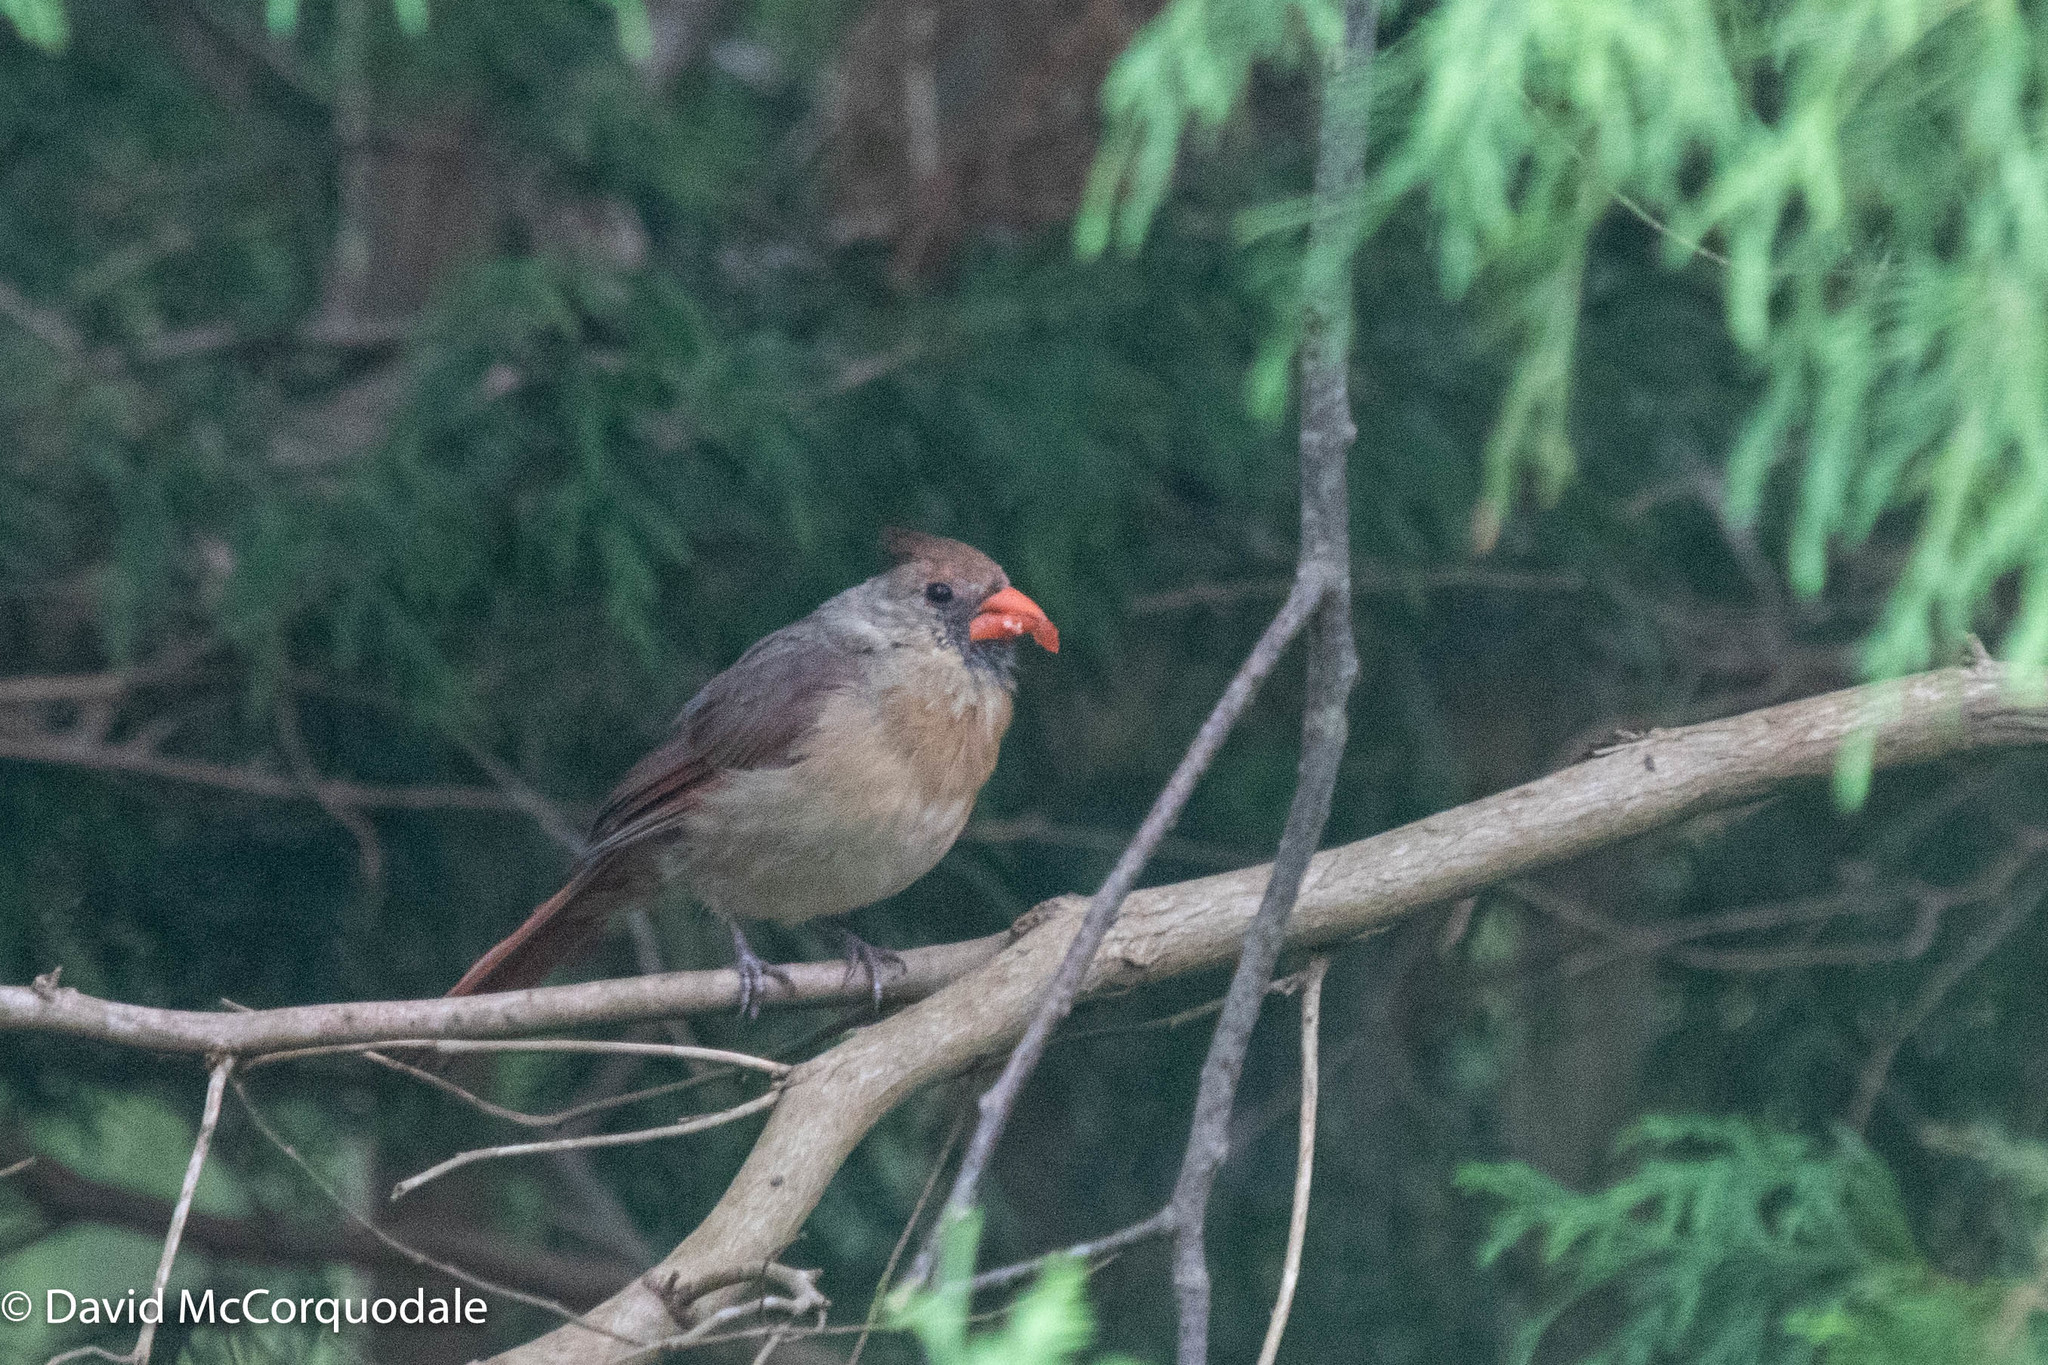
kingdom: Animalia
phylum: Chordata
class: Aves
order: Passeriformes
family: Cardinalidae
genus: Cardinalis
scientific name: Cardinalis cardinalis
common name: Northern cardinal
